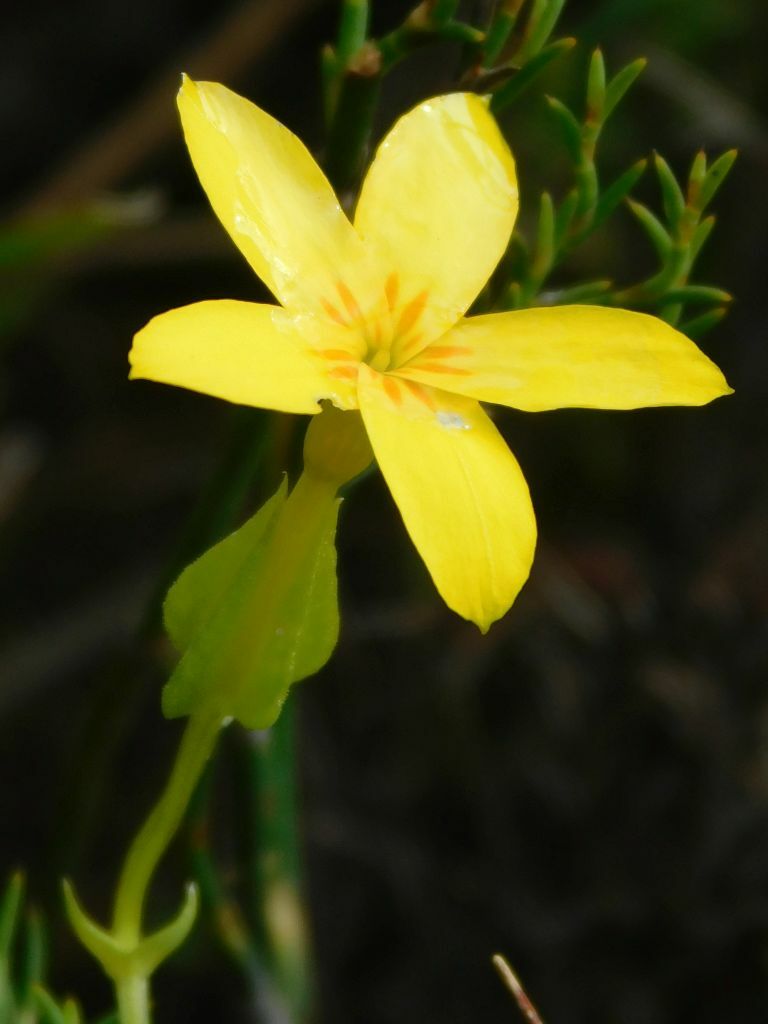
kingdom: Plantae
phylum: Tracheophyta
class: Magnoliopsida
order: Gentianales
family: Gentianaceae
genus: Sebaea
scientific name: Sebaea exacoides
